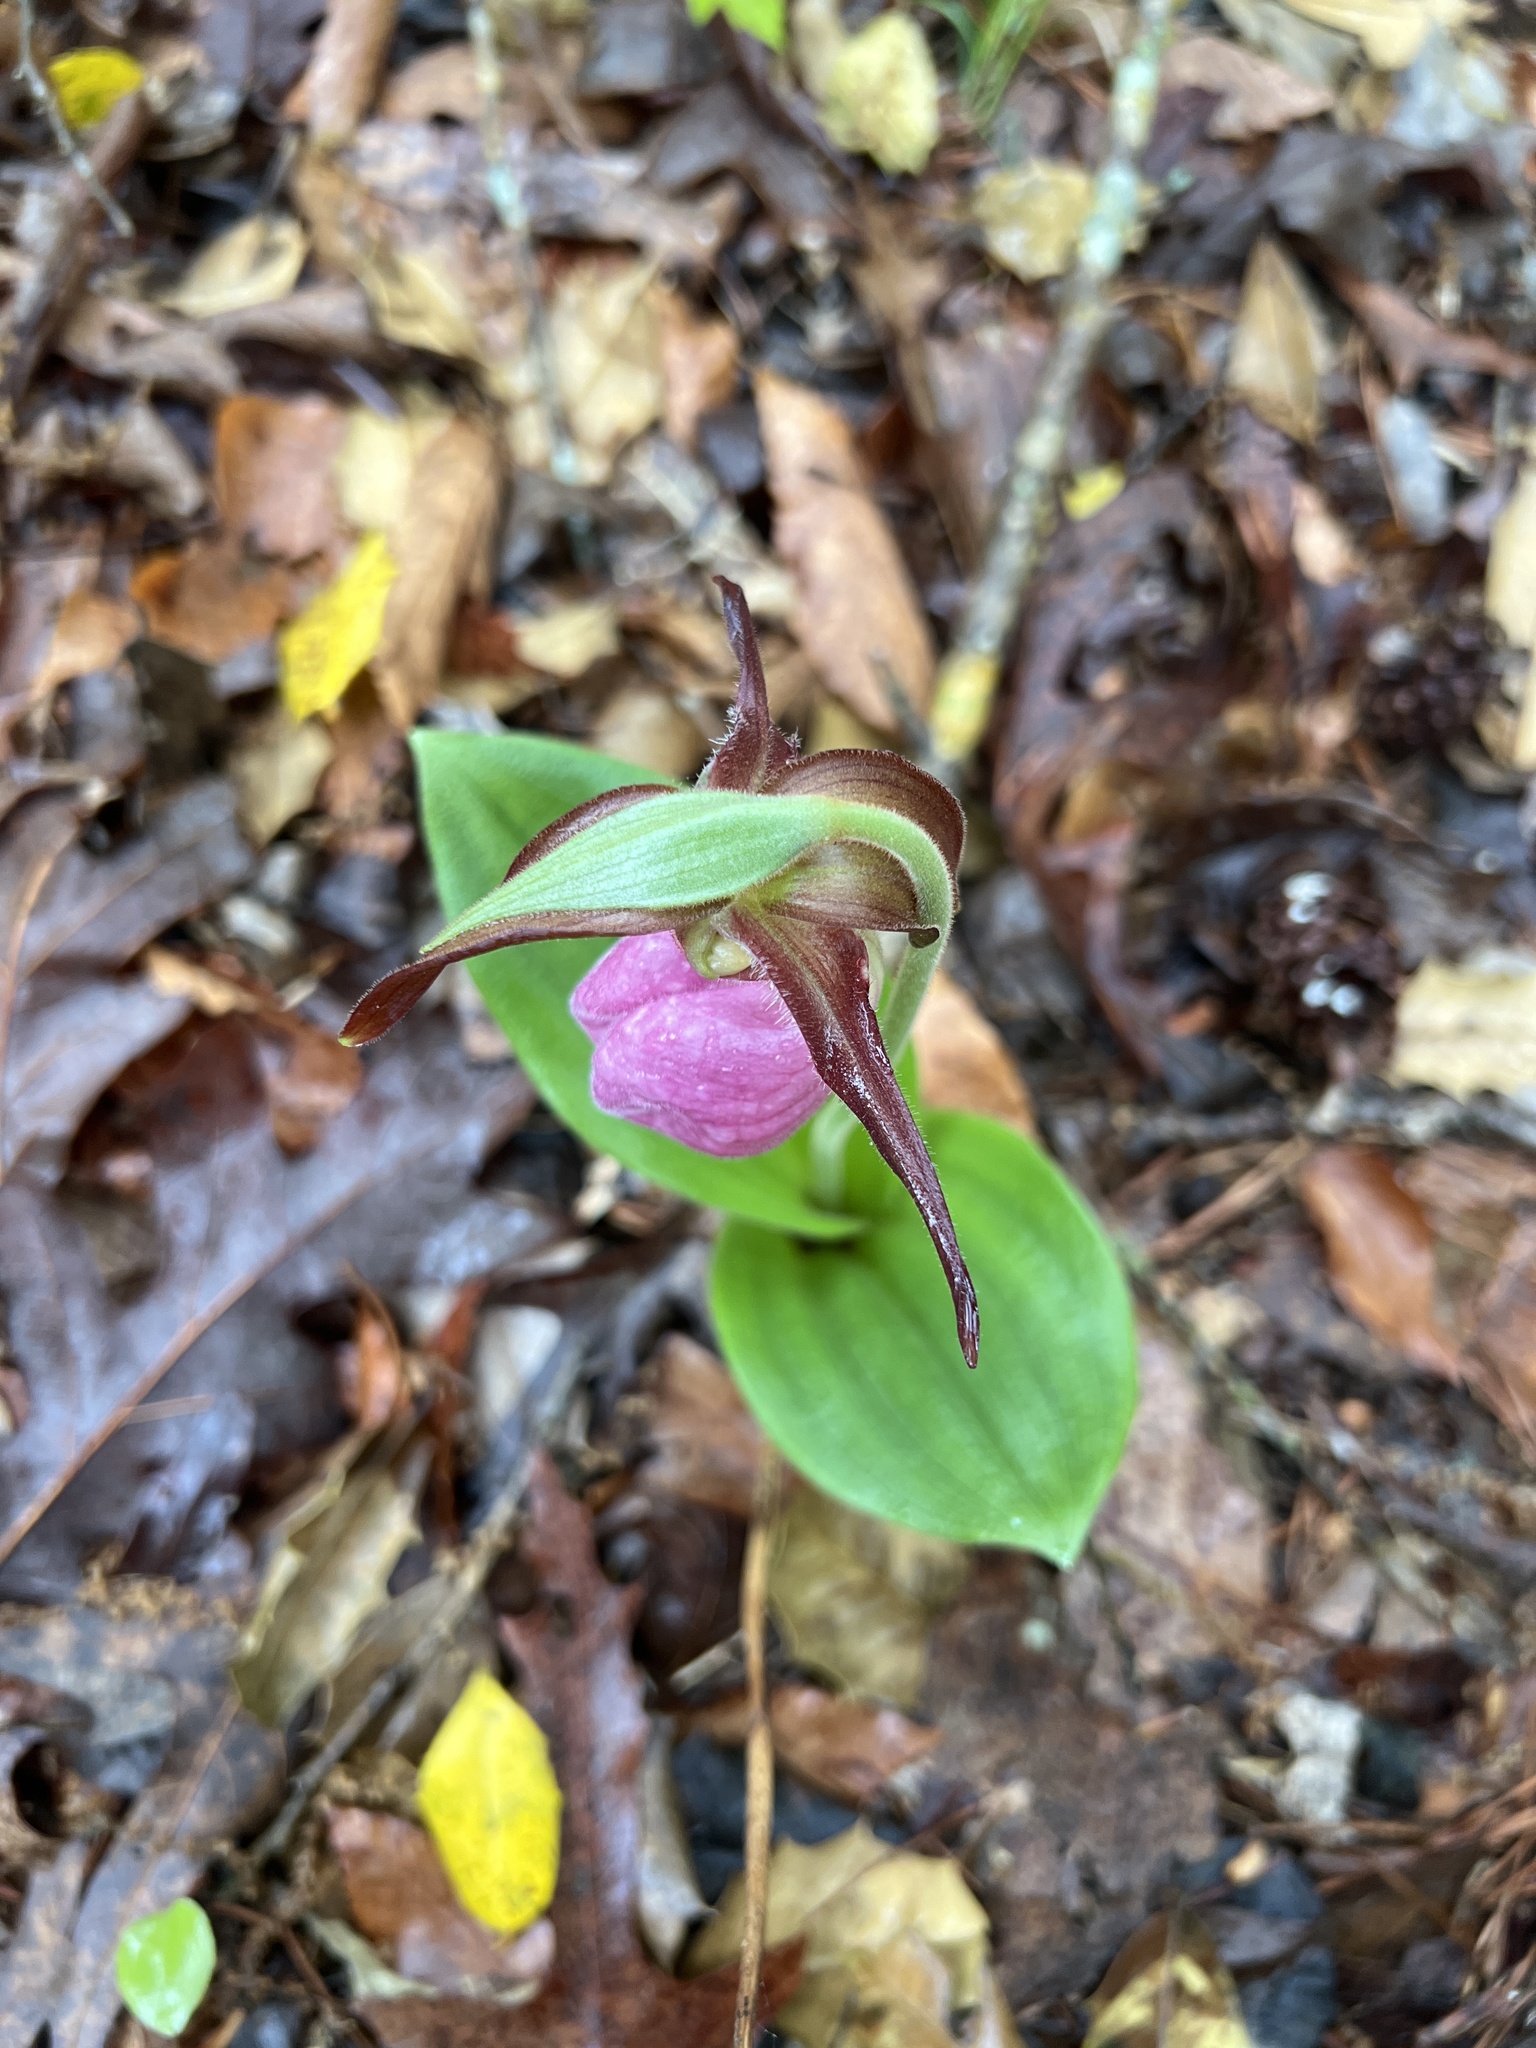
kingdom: Plantae
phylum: Tracheophyta
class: Liliopsida
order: Asparagales
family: Orchidaceae
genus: Cypripedium
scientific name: Cypripedium acaule
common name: Pink lady's-slipper
